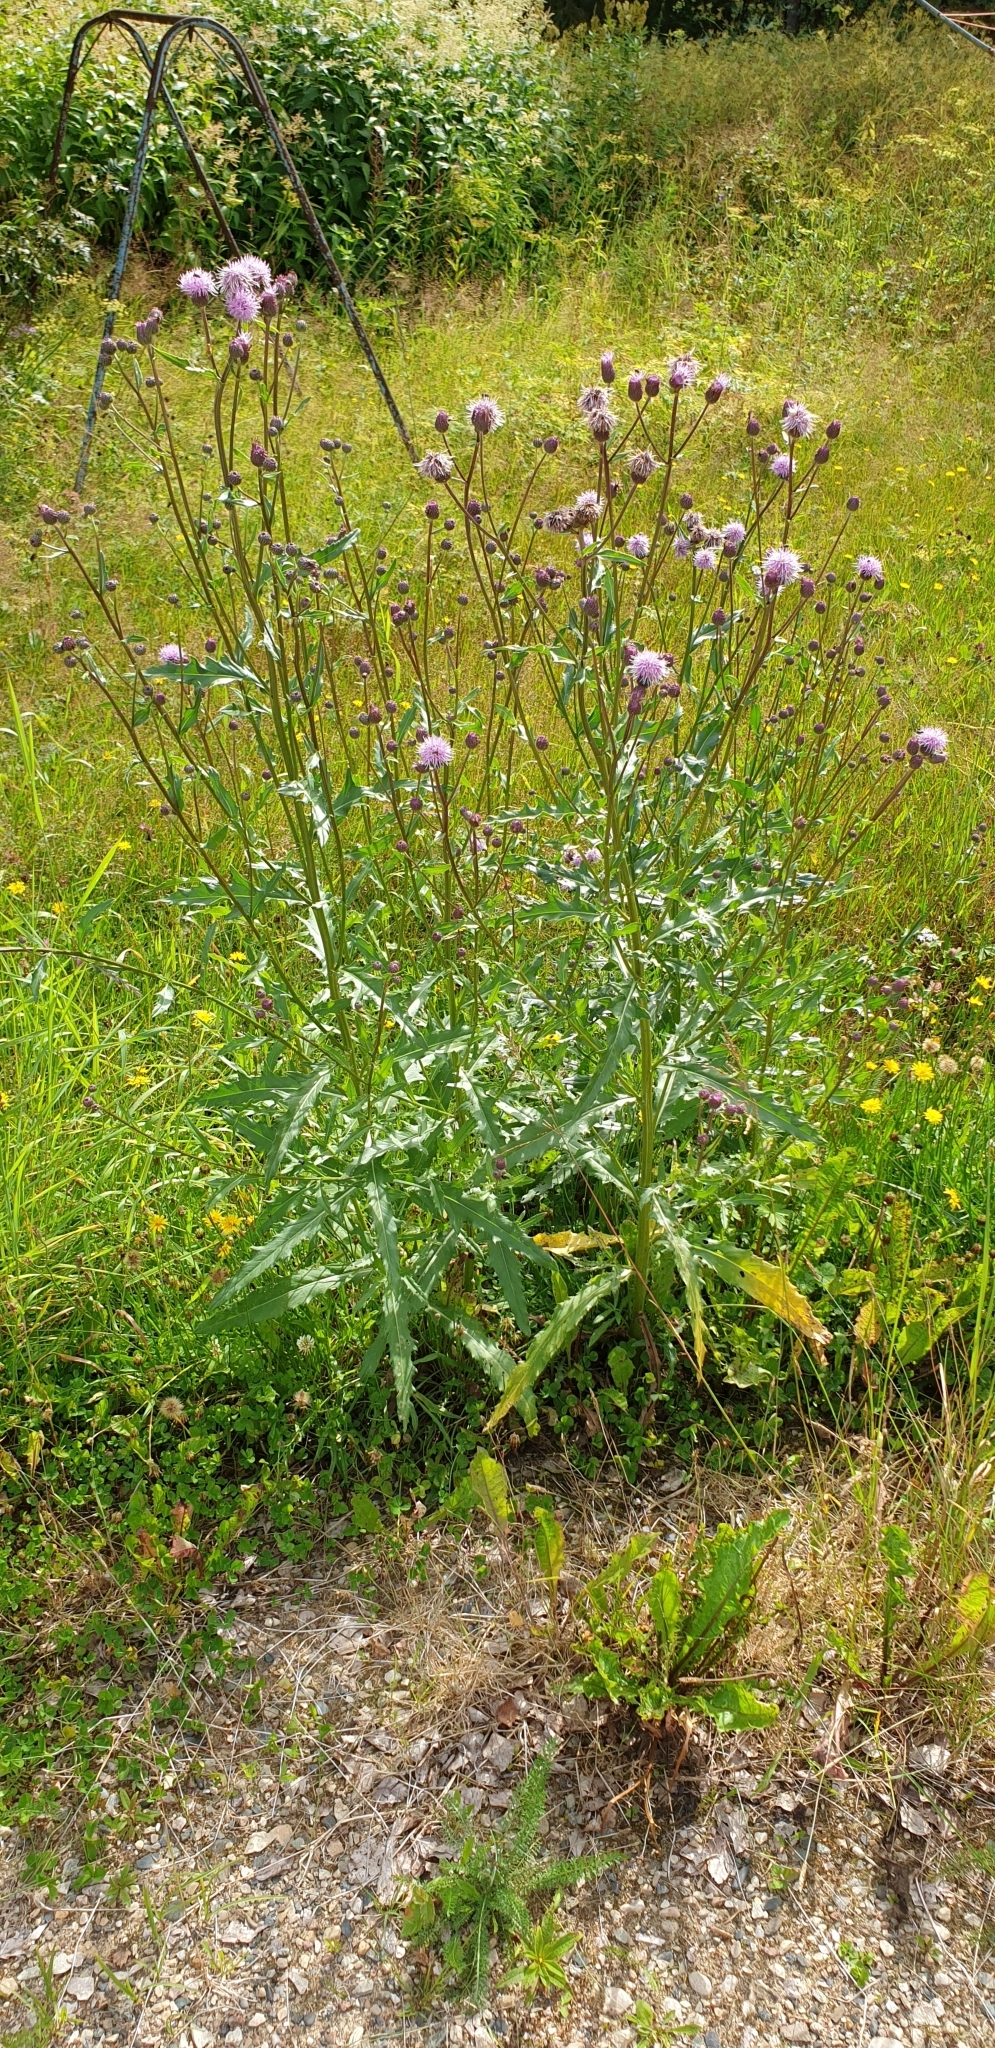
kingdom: Plantae
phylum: Tracheophyta
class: Magnoliopsida
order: Asterales
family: Asteraceae
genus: Cirsium
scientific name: Cirsium arvense
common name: Creeping thistle
